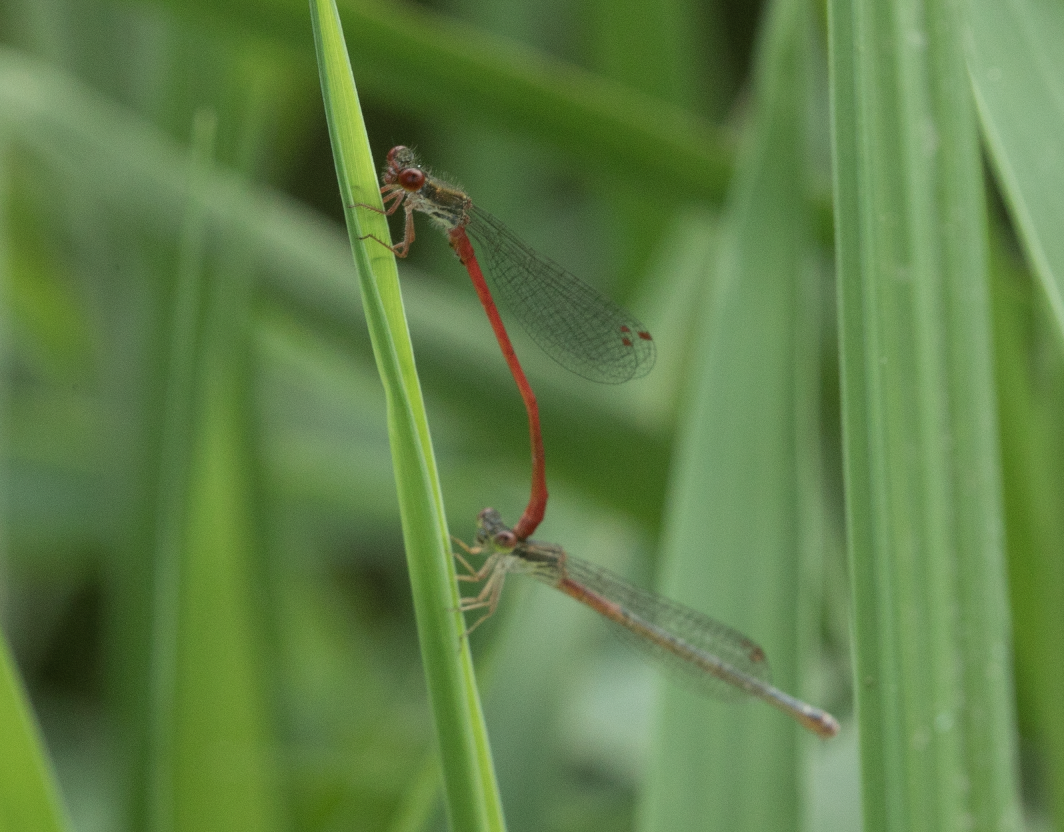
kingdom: Animalia
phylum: Arthropoda
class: Insecta
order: Odonata
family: Coenagrionidae
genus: Ceriagrion
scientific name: Ceriagrion tenellum
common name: Small red damselfly
